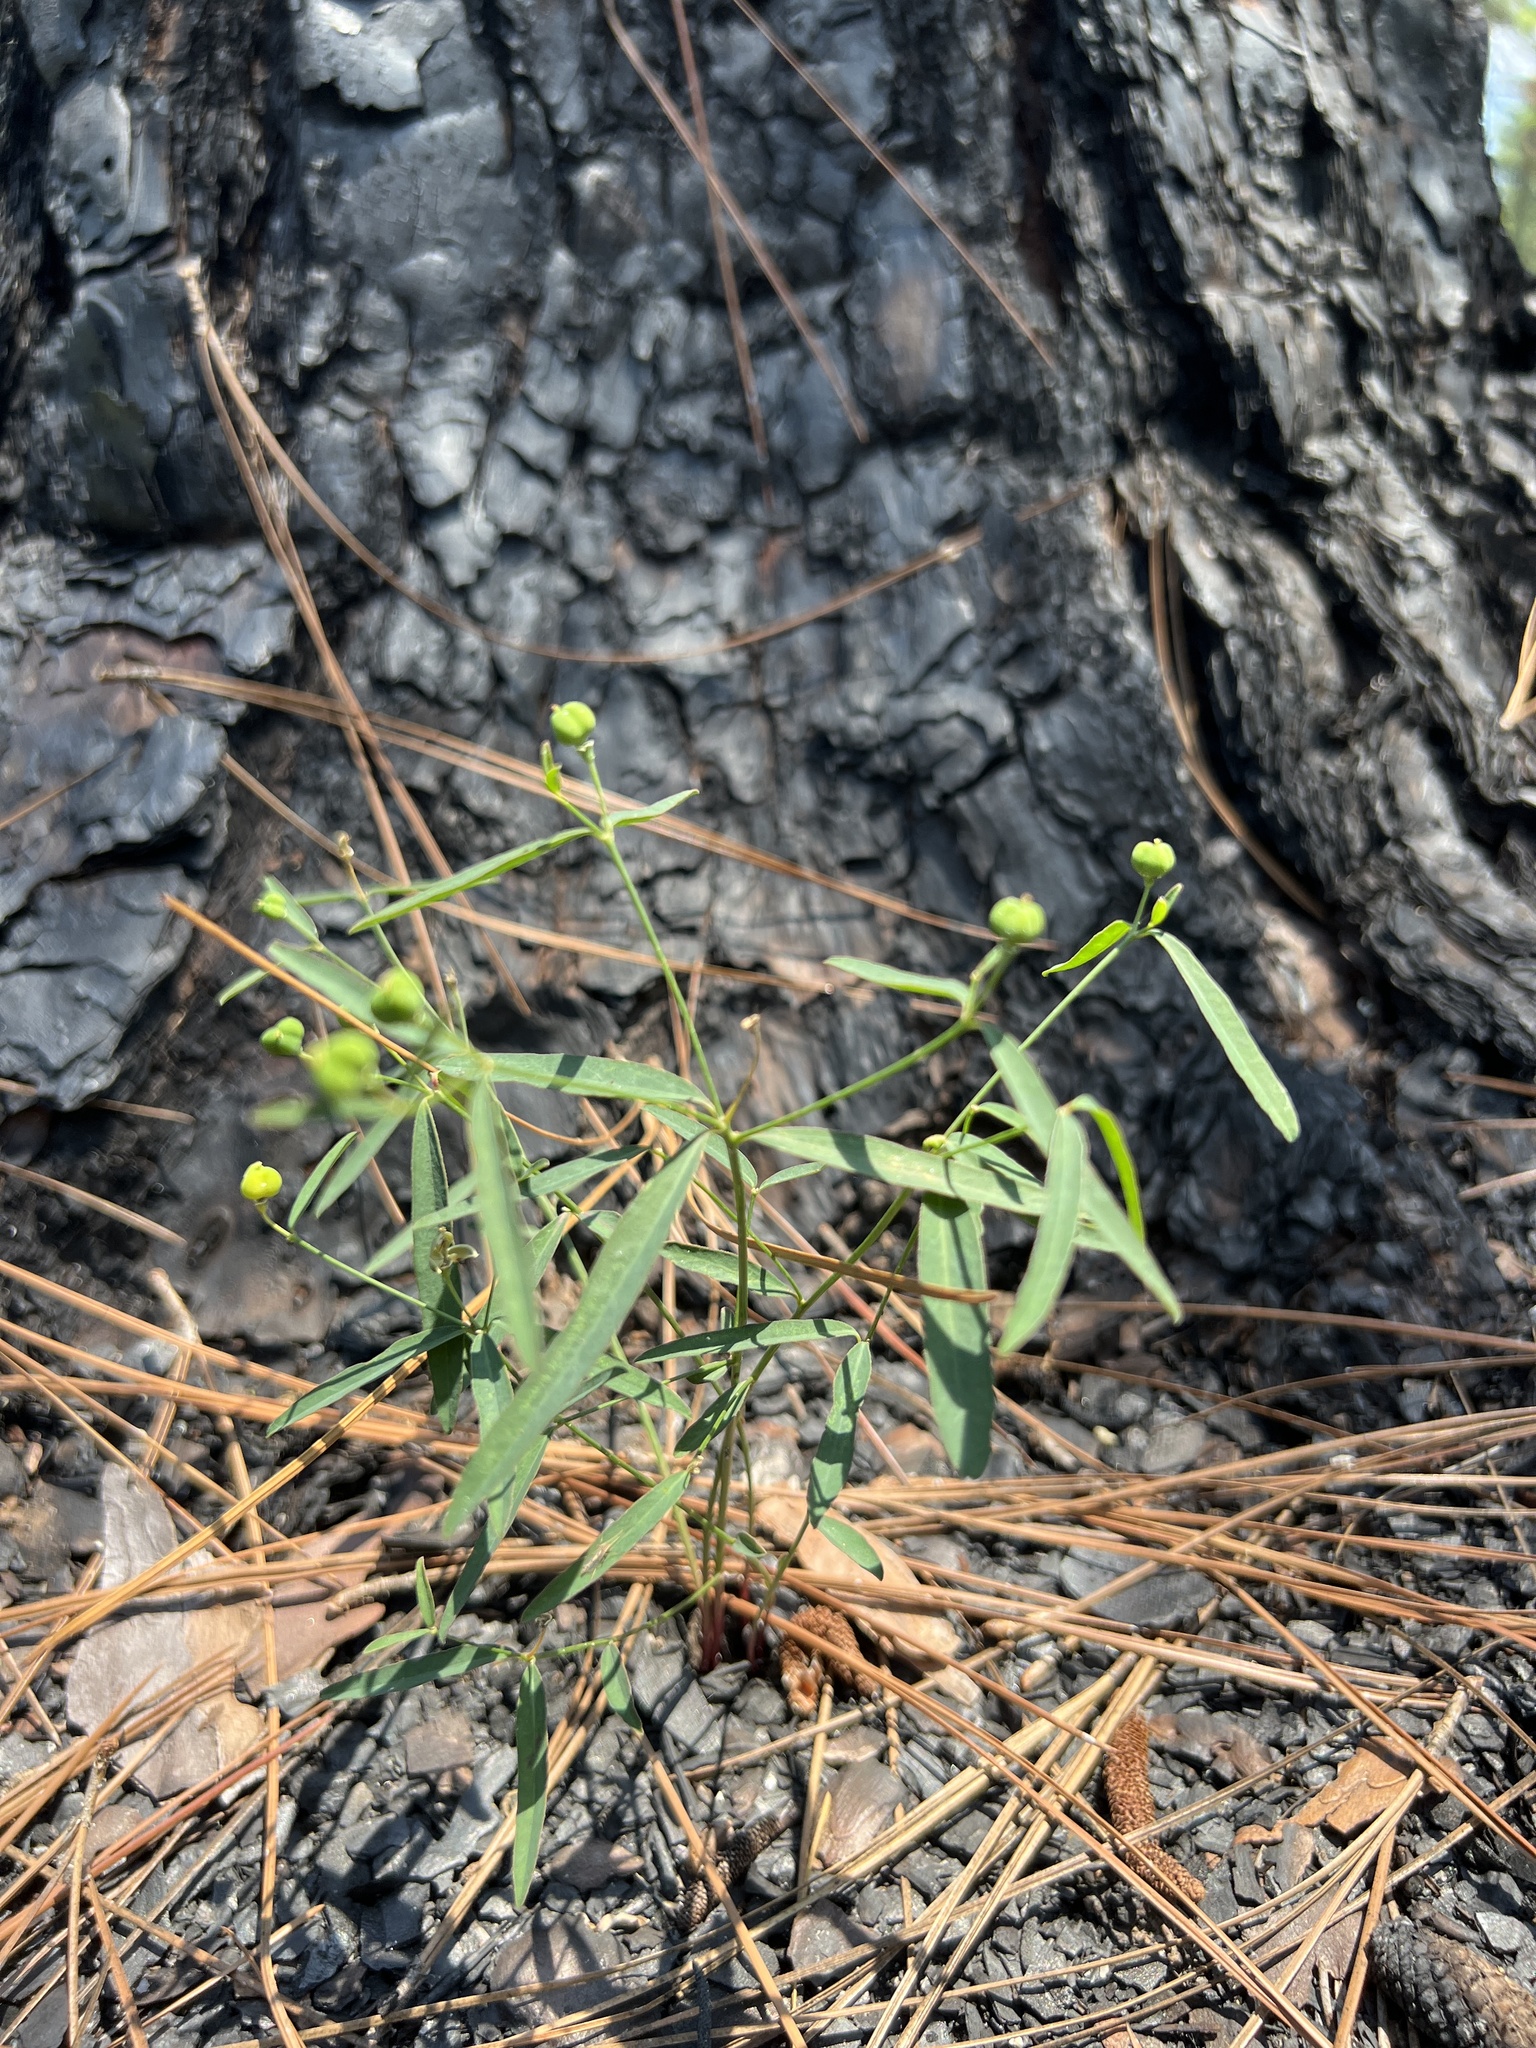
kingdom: Plantae
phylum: Tracheophyta
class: Magnoliopsida
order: Malpighiales
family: Euphorbiaceae
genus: Euphorbia
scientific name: Euphorbia curtisii
